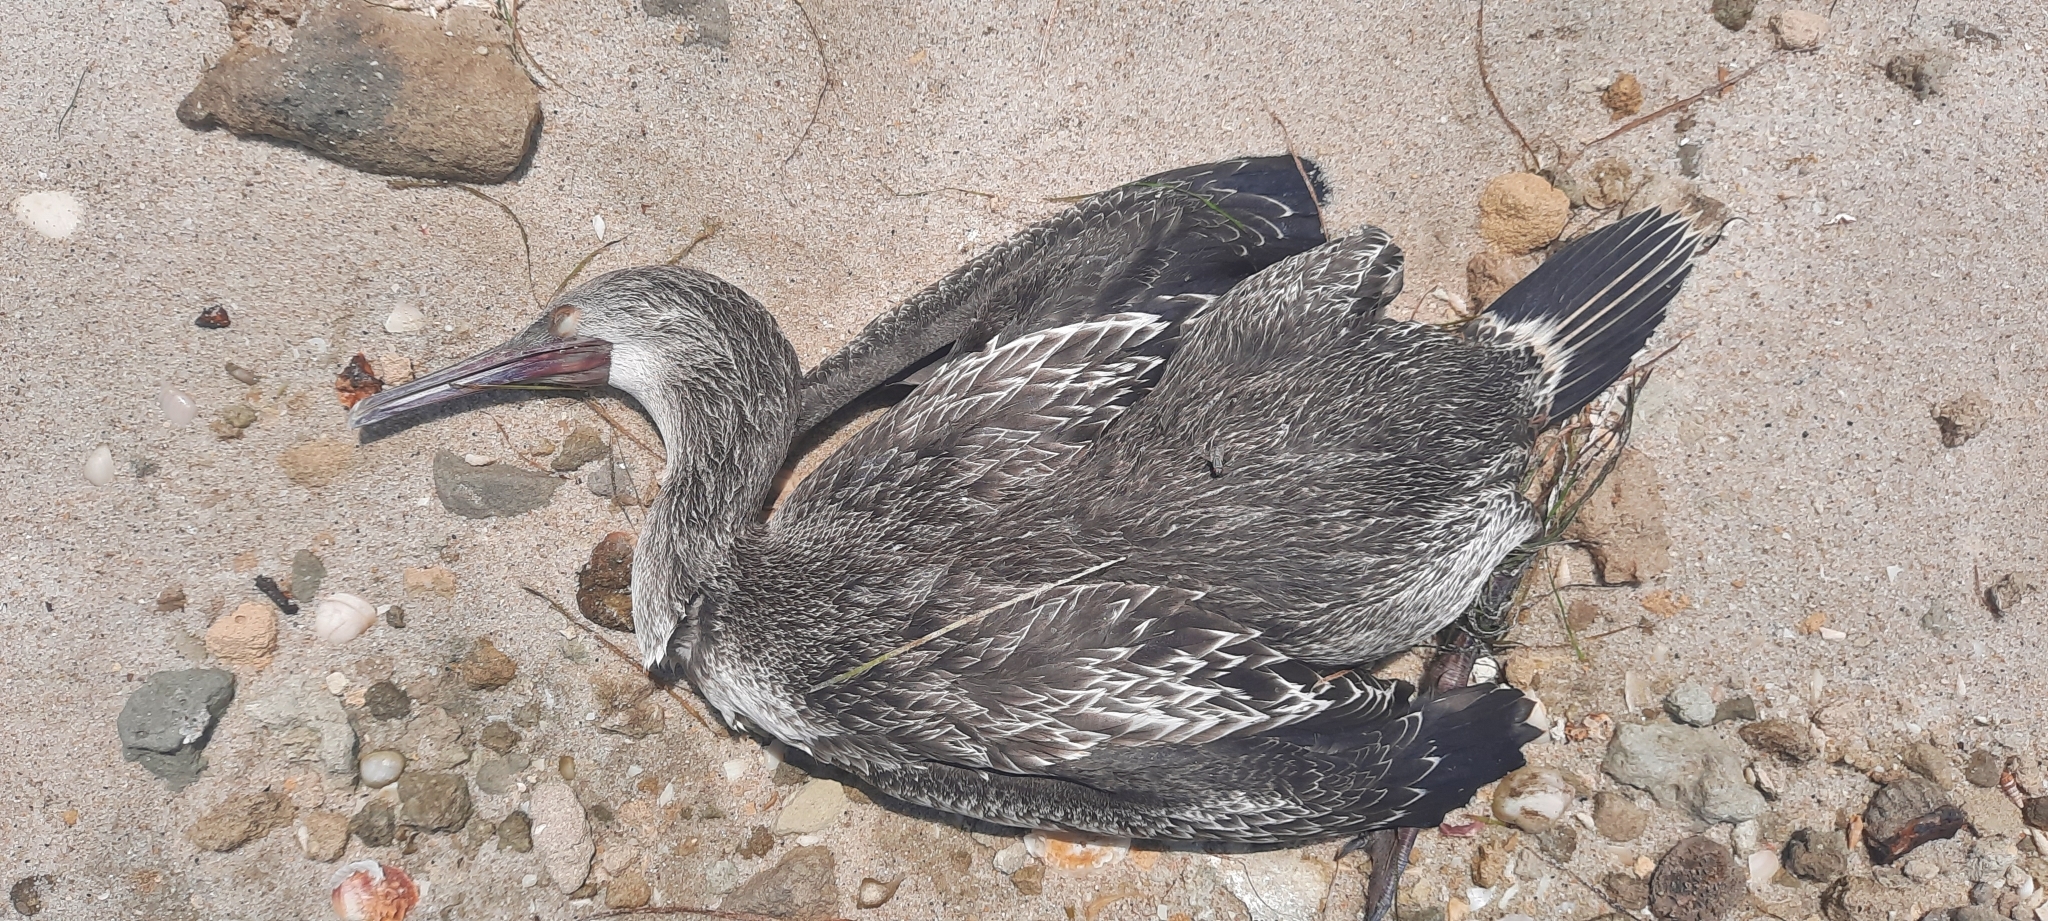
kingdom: Animalia
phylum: Chordata
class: Aves
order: Suliformes
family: Phalacrocoracidae
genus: Phalacrocorax
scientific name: Phalacrocorax nigrogularis
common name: Socotra cormorant
